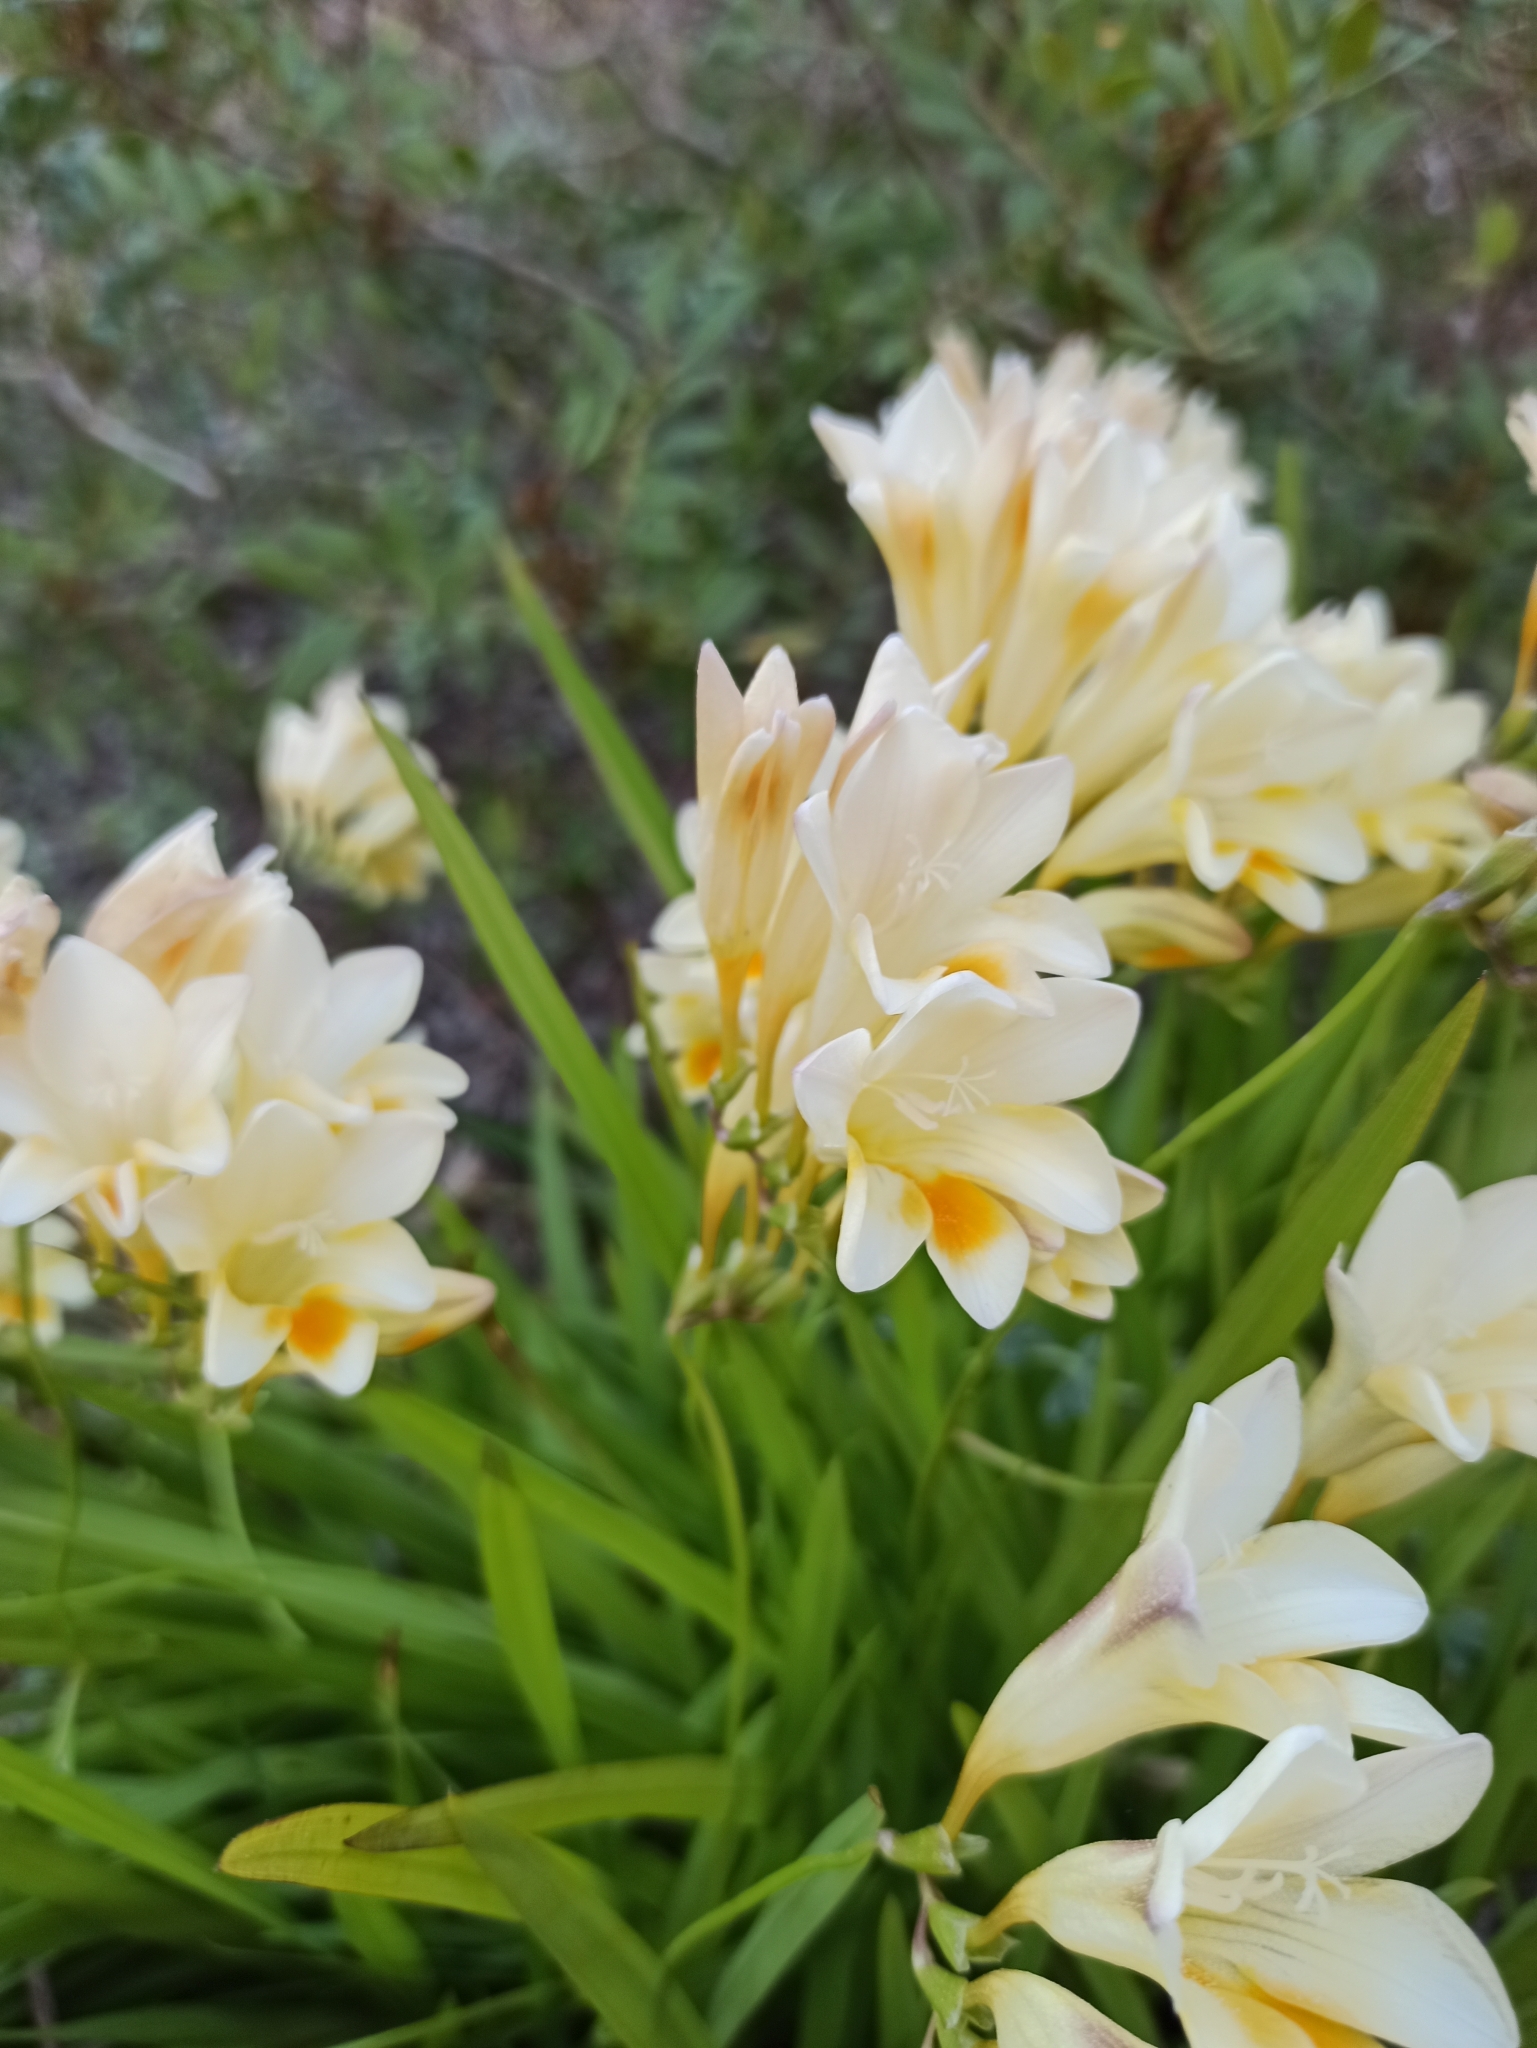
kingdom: Plantae
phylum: Tracheophyta
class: Liliopsida
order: Asparagales
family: Iridaceae
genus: Freesia
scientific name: Freesia leichtlinii
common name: Freesia
